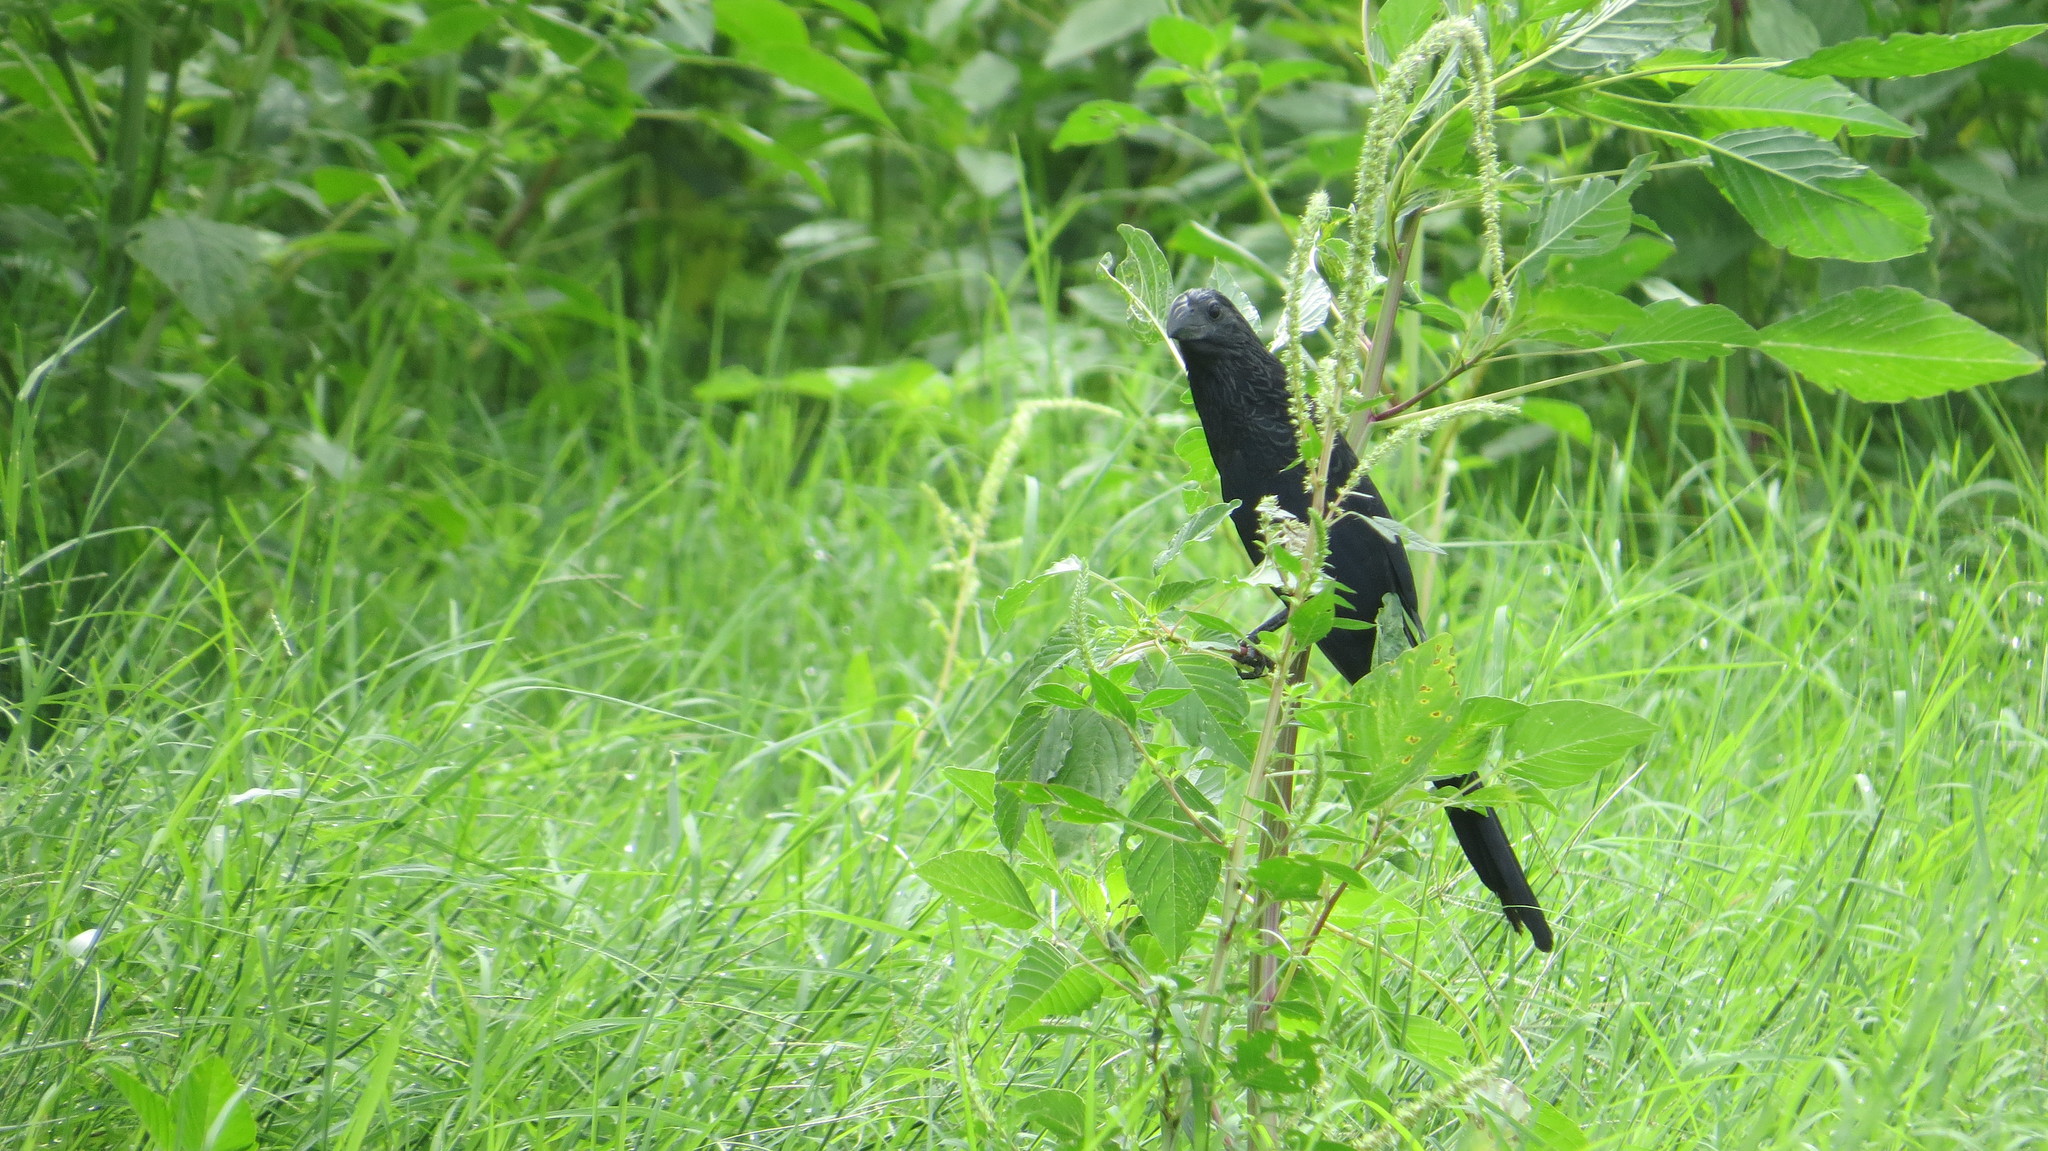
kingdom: Animalia
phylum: Chordata
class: Aves
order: Cuculiformes
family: Cuculidae
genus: Crotophaga
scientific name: Crotophaga sulcirostris
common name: Groove-billed ani
